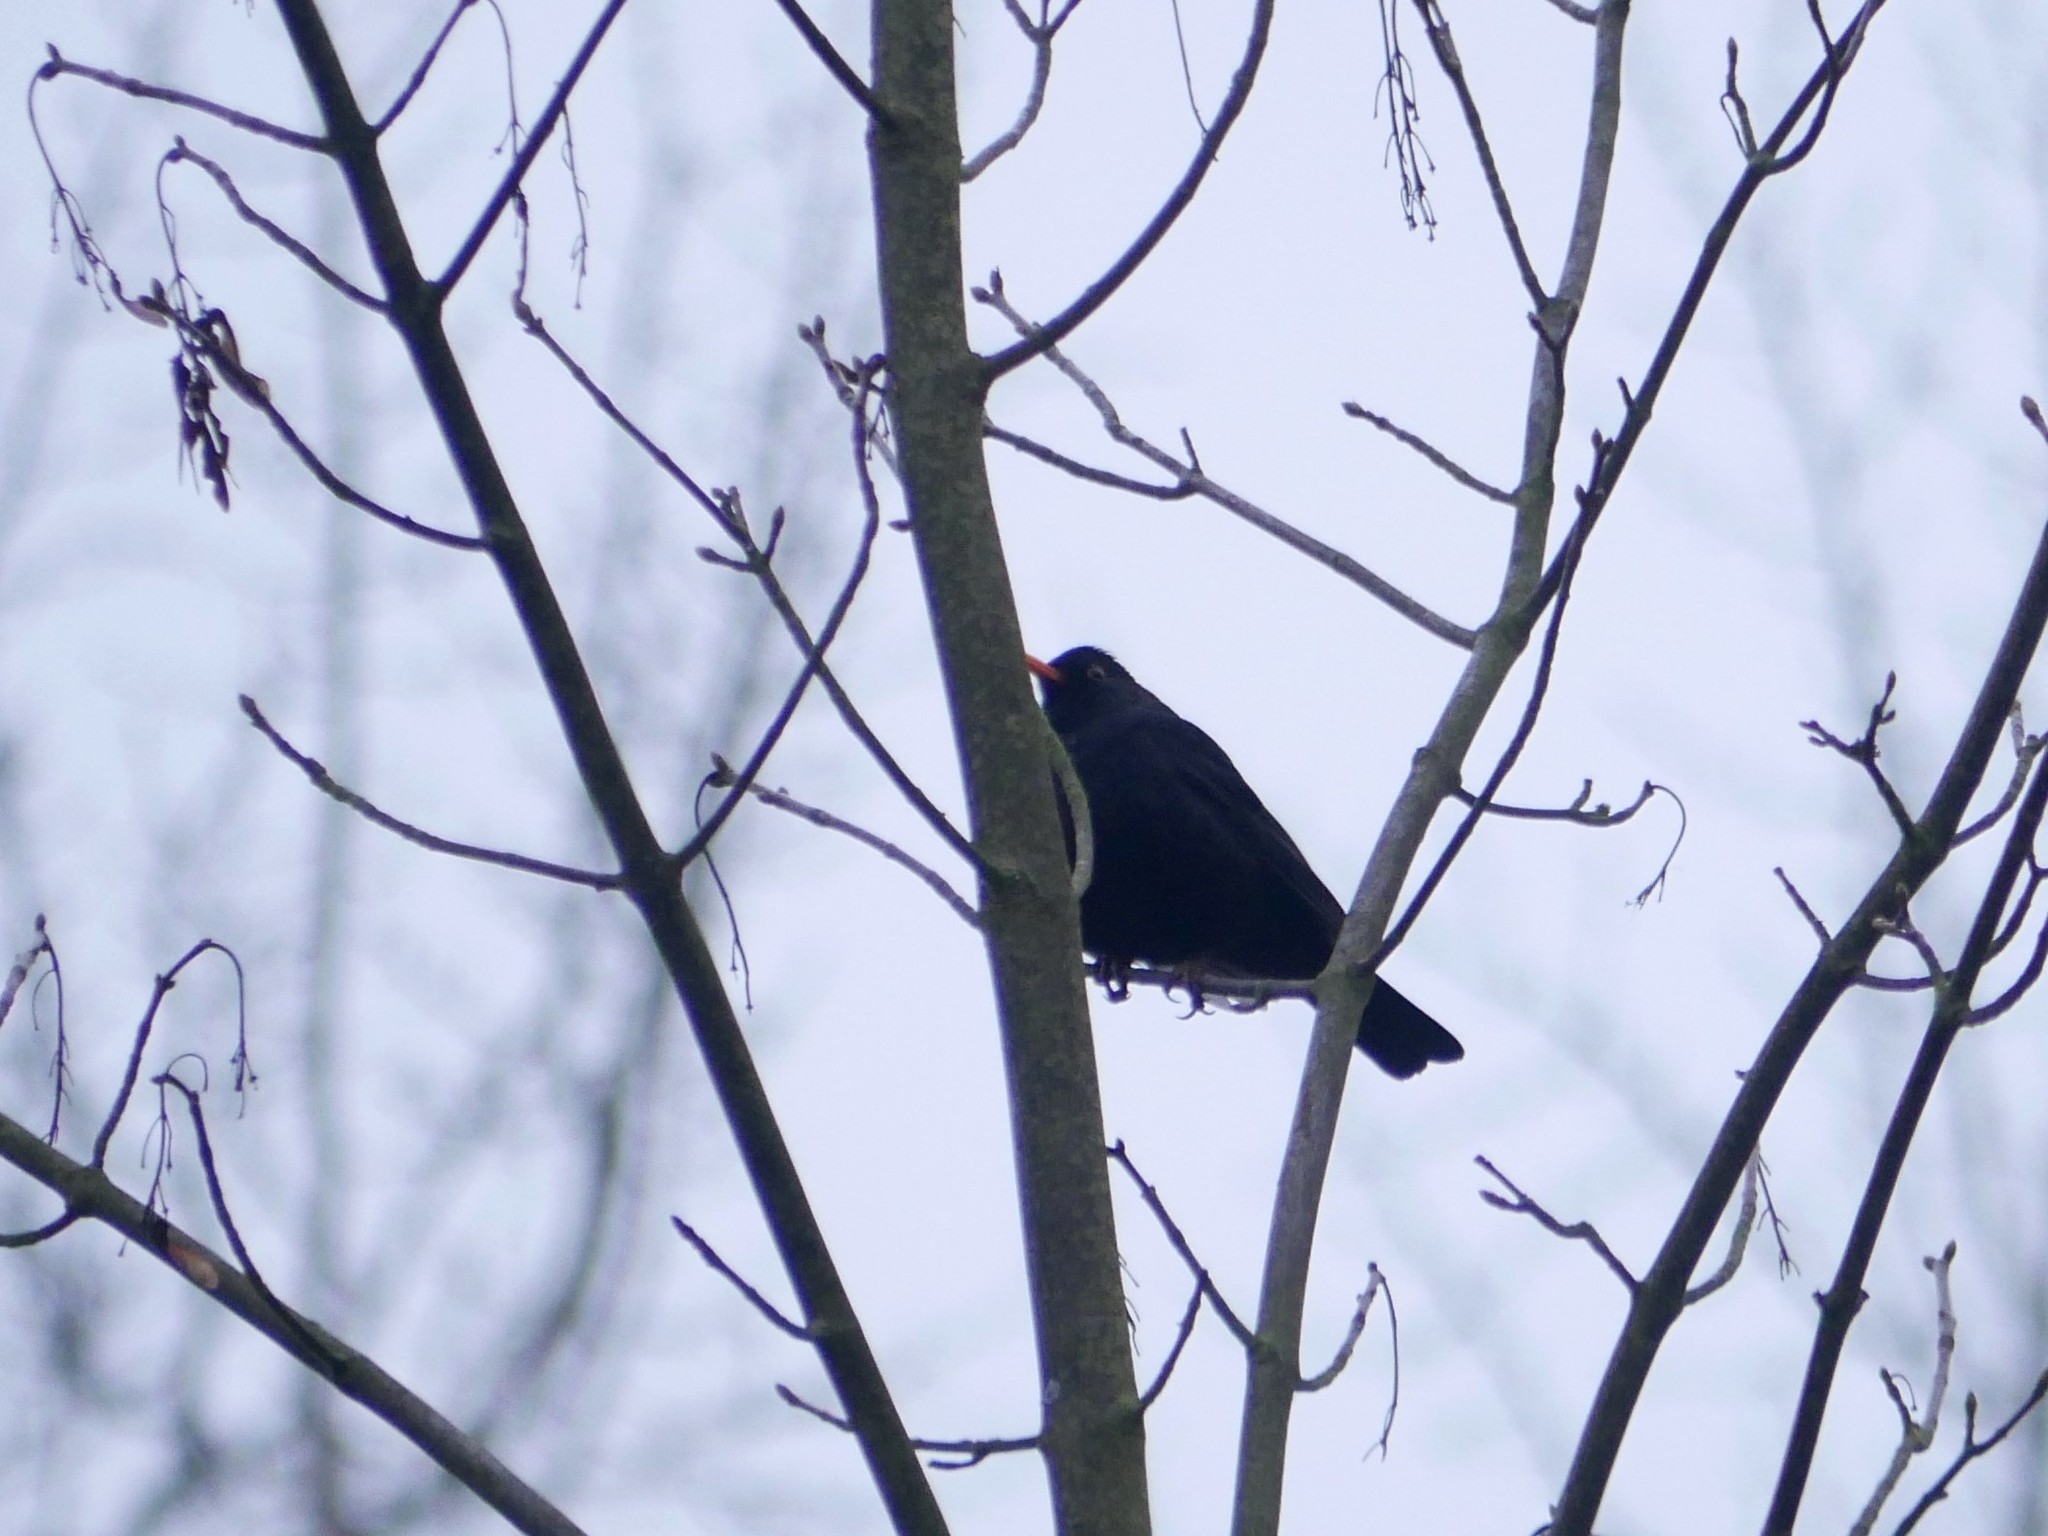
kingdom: Animalia
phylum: Chordata
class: Aves
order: Passeriformes
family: Turdidae
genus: Turdus
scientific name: Turdus merula
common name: Common blackbird
